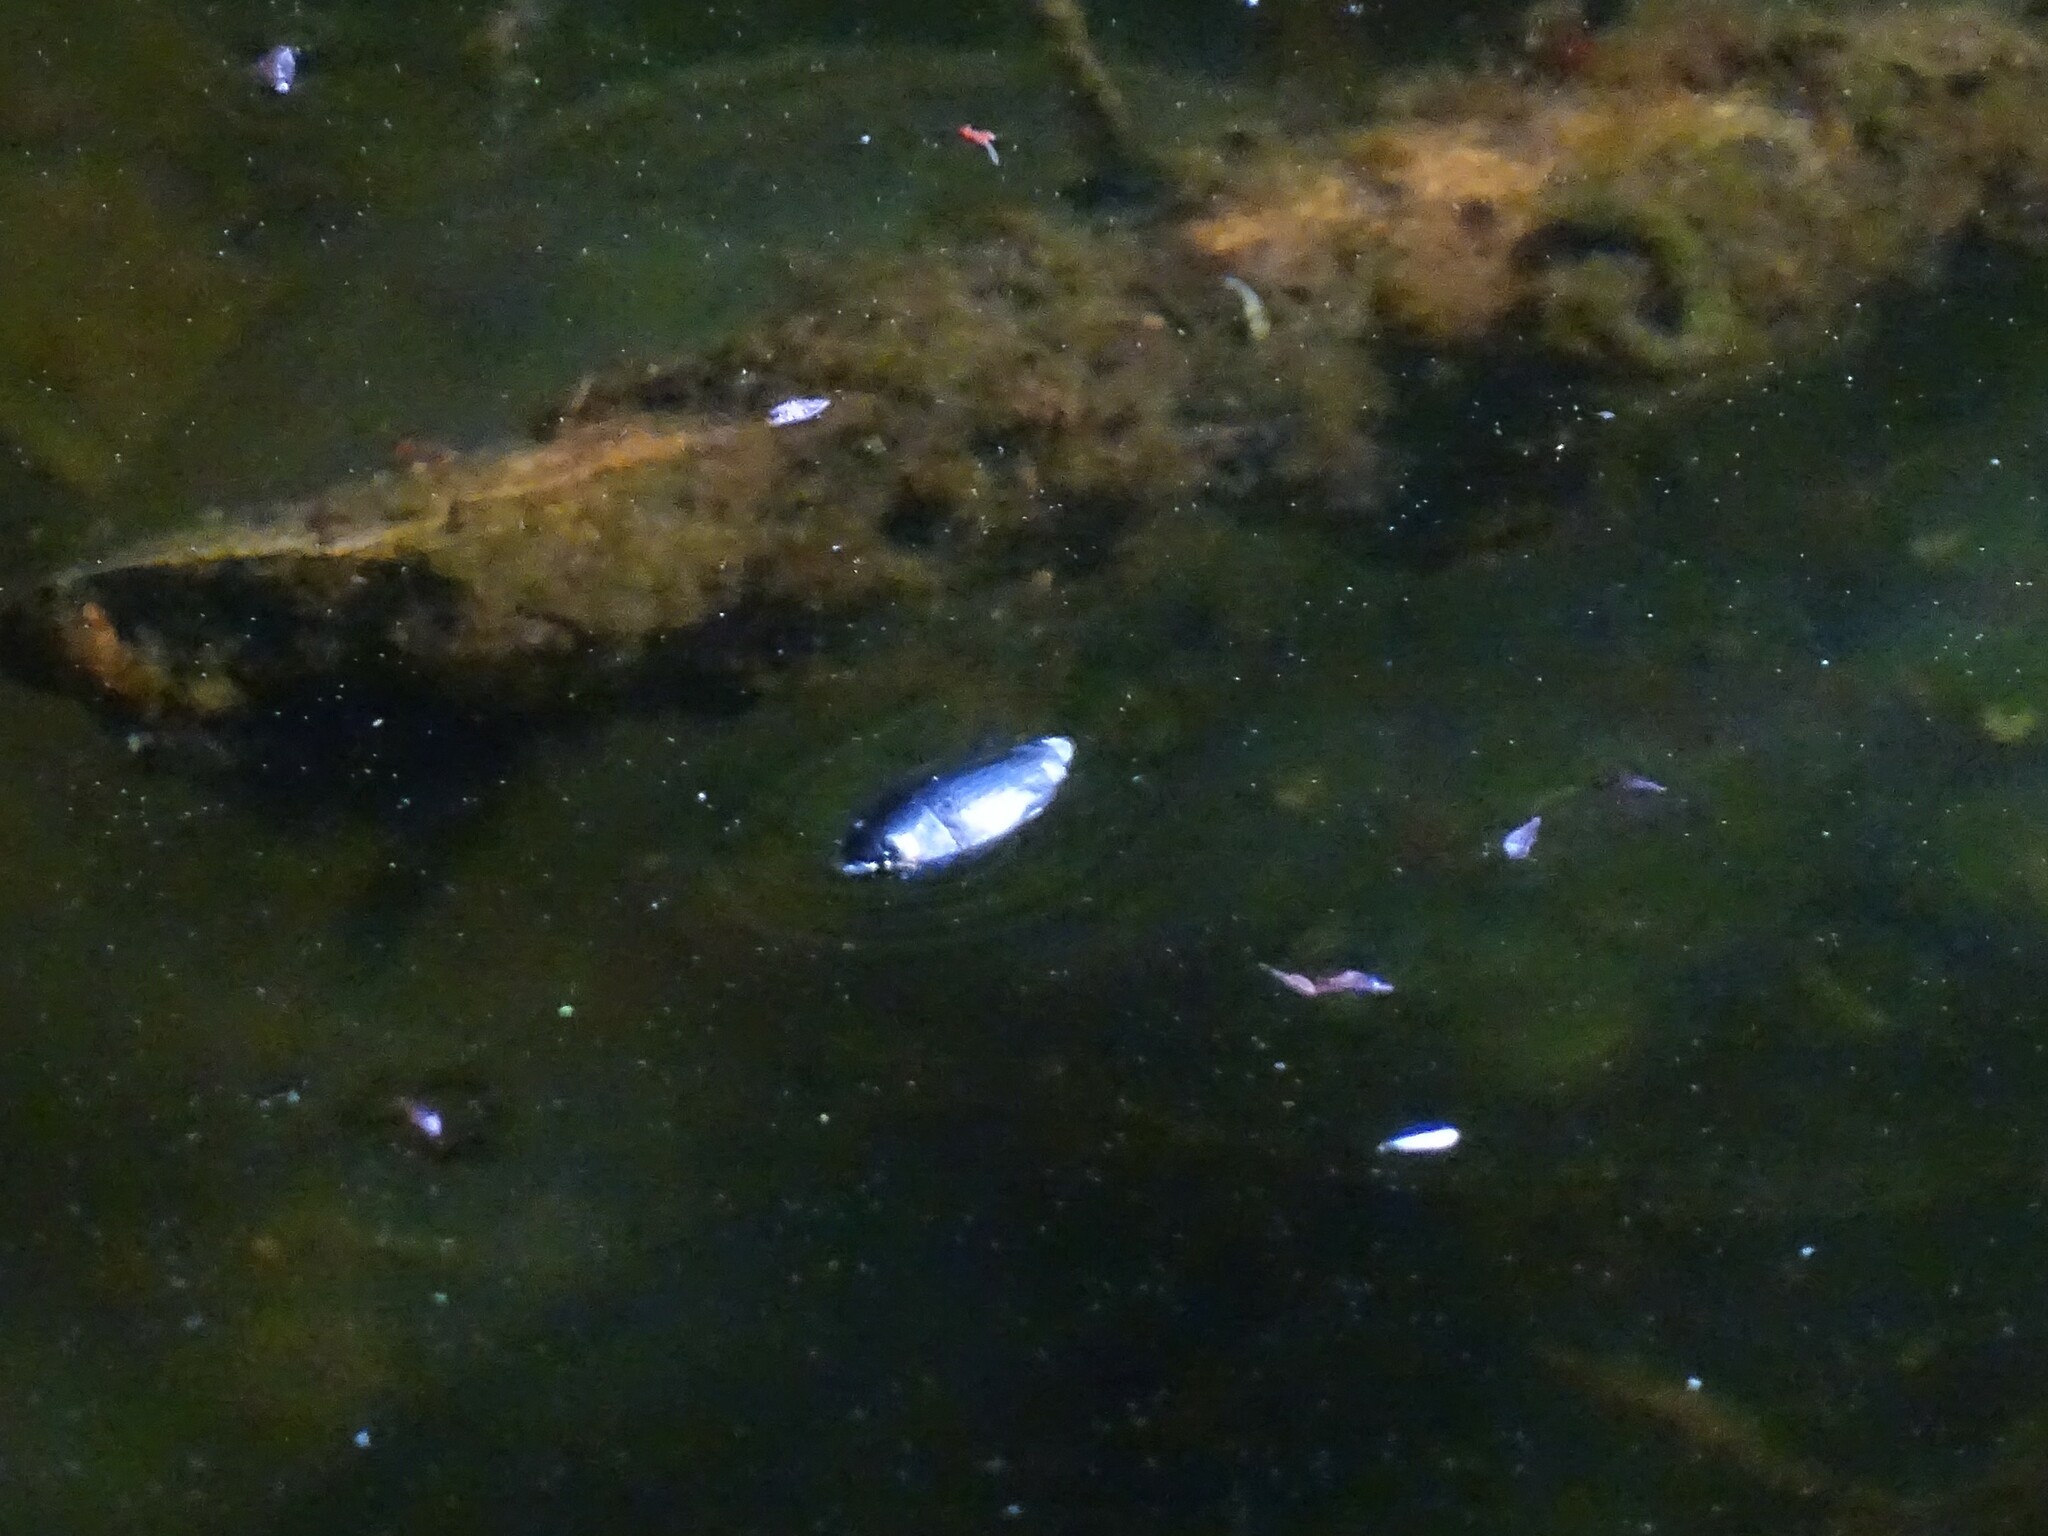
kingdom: Animalia
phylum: Arthropoda
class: Insecta
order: Coleoptera
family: Gyrinidae
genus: Dineutus
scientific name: Dineutus
